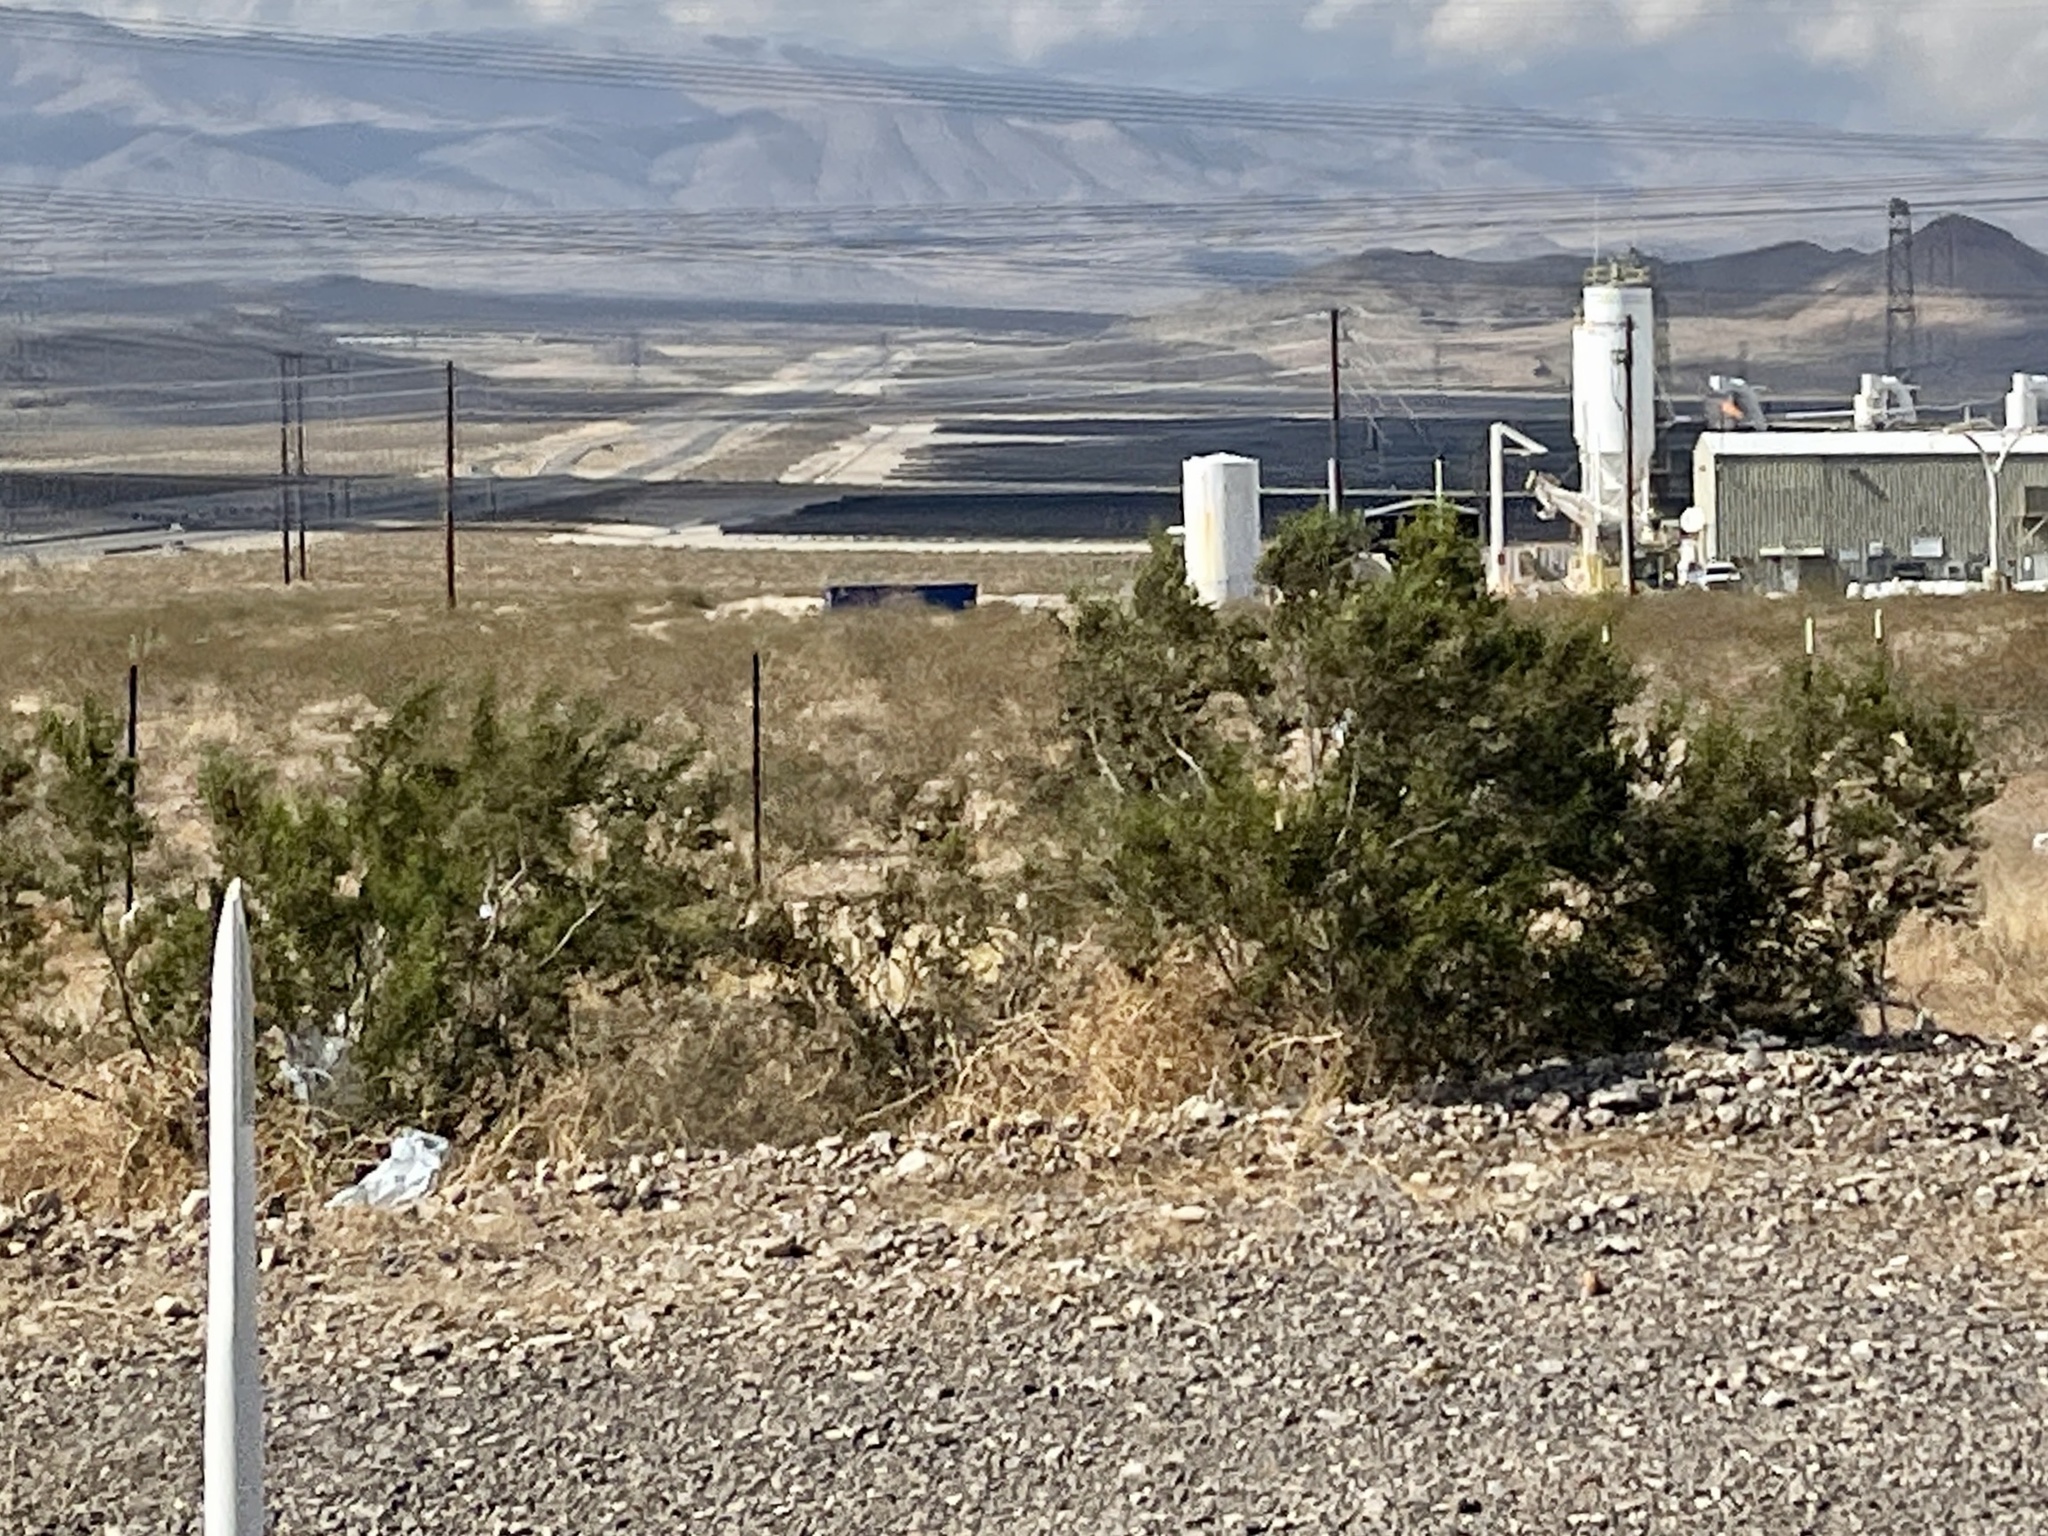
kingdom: Plantae
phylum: Tracheophyta
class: Magnoliopsida
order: Zygophyllales
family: Zygophyllaceae
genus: Larrea
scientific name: Larrea tridentata
